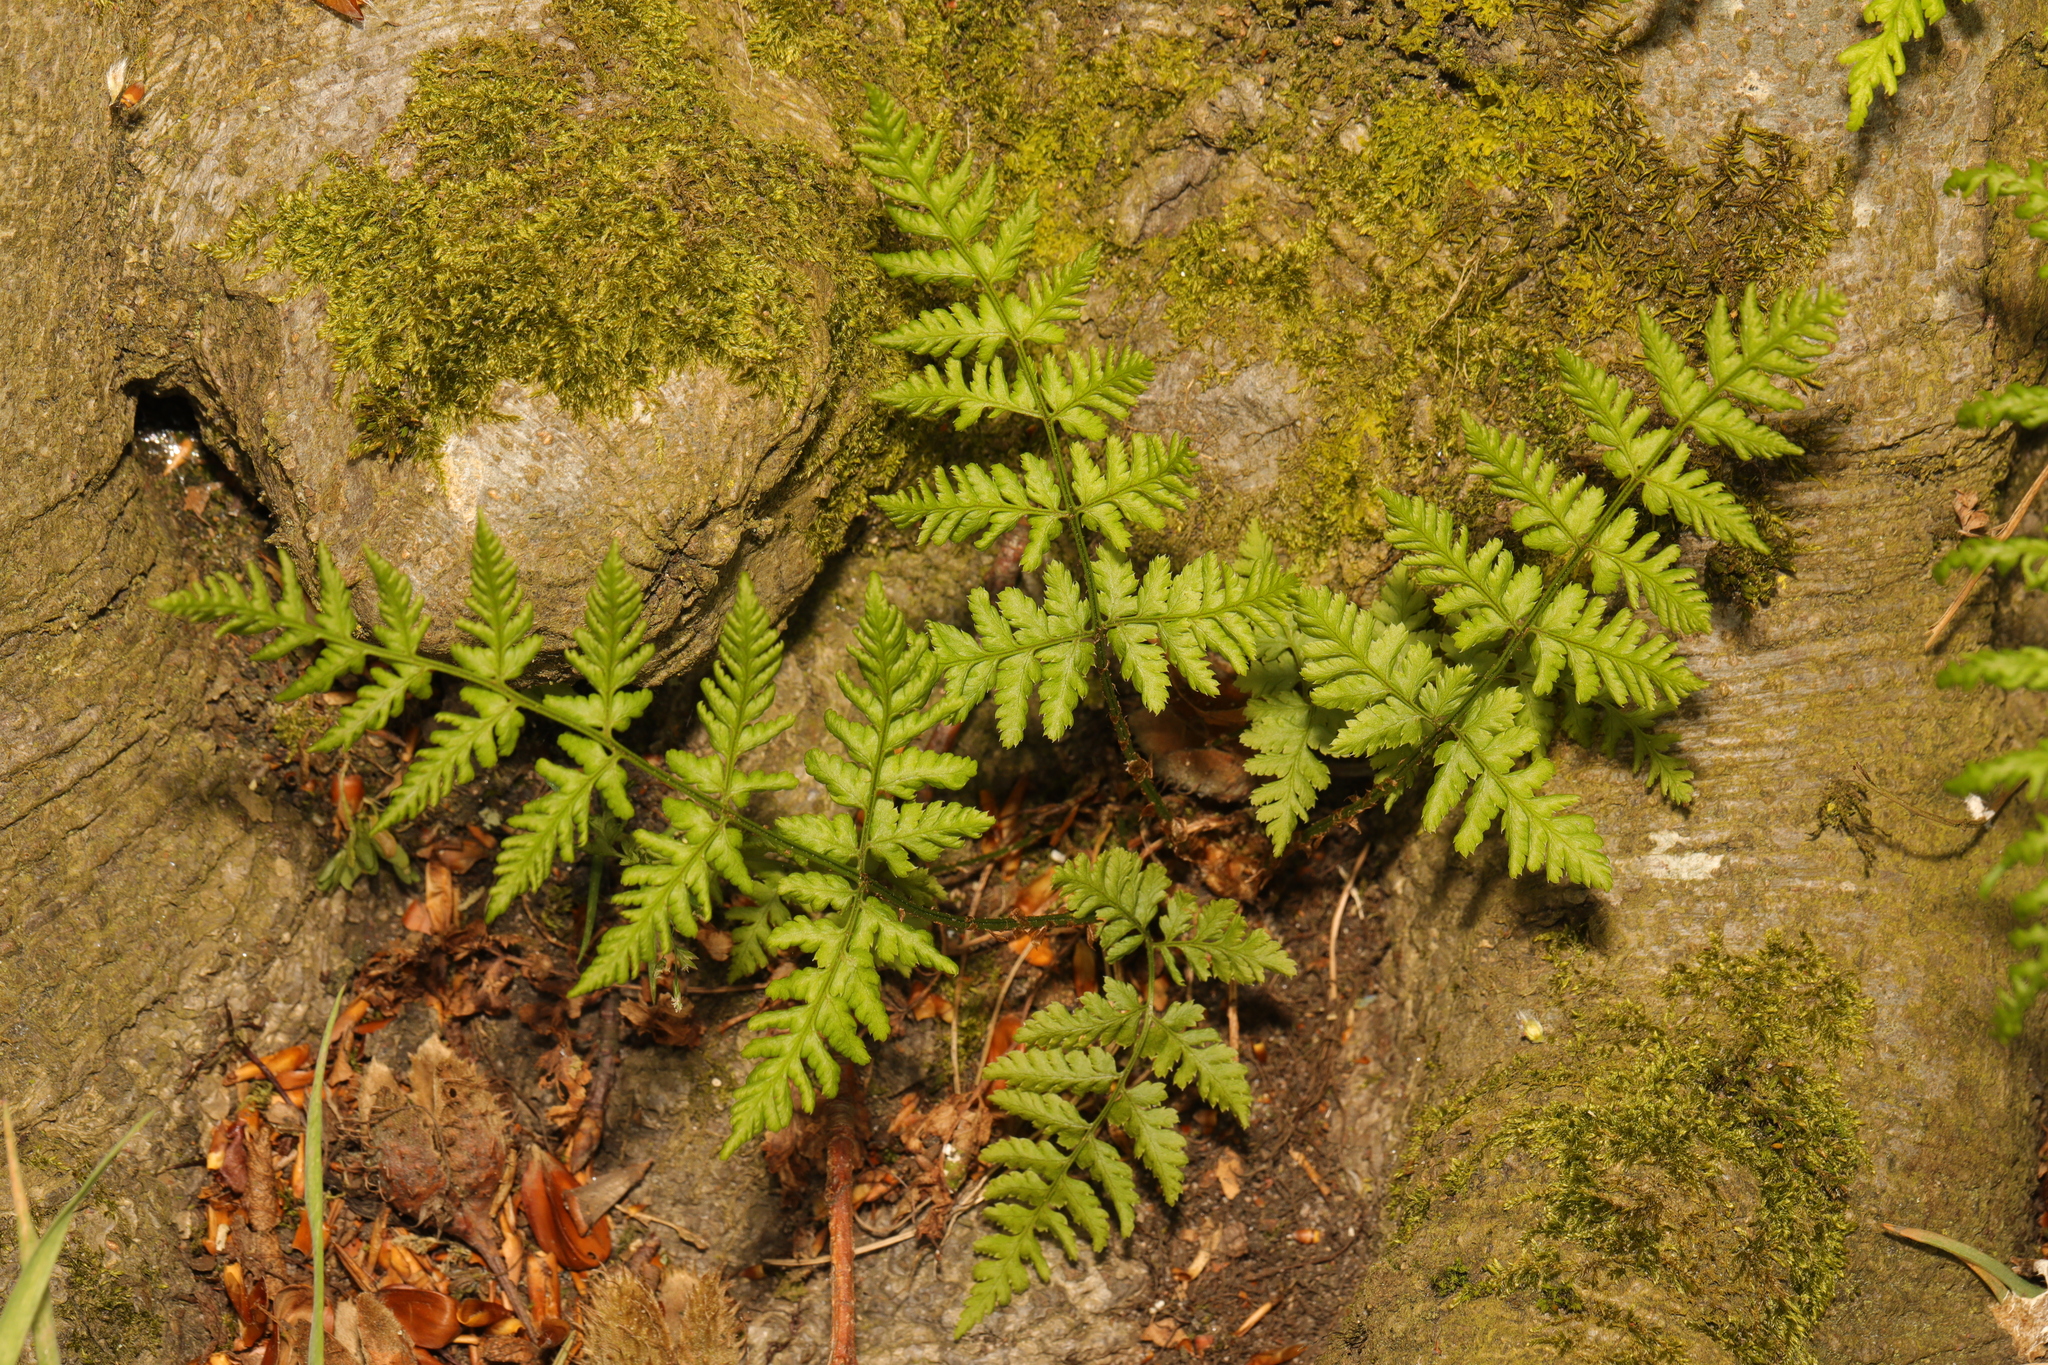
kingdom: Plantae
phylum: Tracheophyta
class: Polypodiopsida
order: Polypodiales
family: Dryopteridaceae
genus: Dryopteris
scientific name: Dryopteris dilatata
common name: Broad buckler-fern
